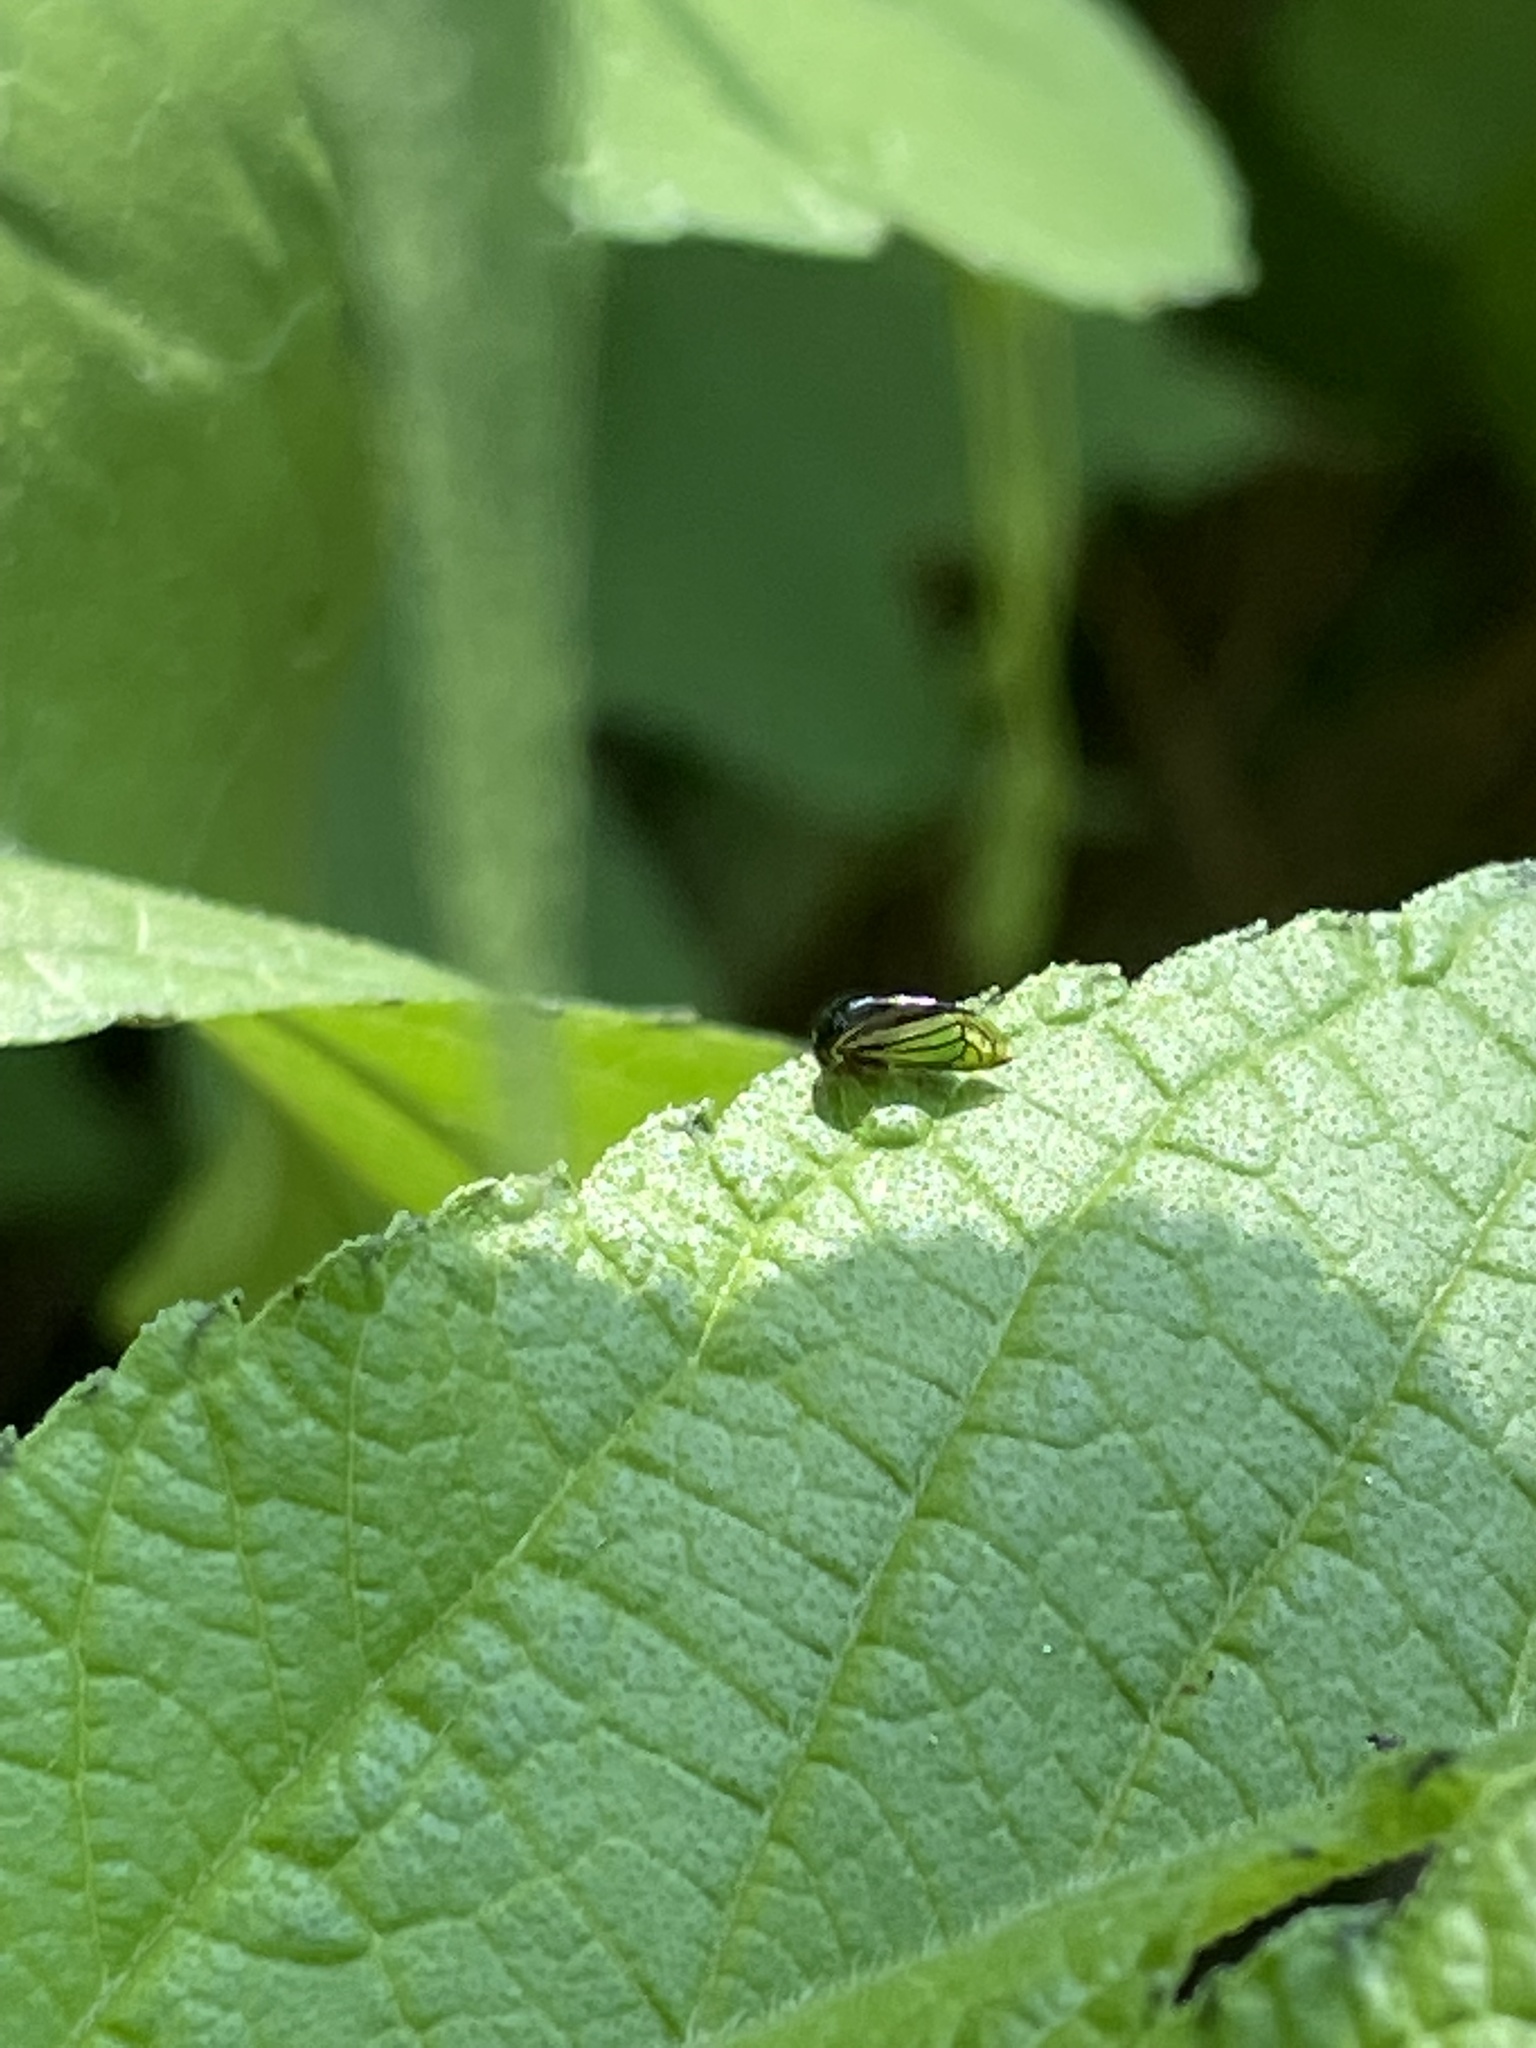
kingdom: Animalia
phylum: Arthropoda
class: Insecta
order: Hemiptera
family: Membracidae
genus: Acutalis
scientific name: Acutalis tartarea
